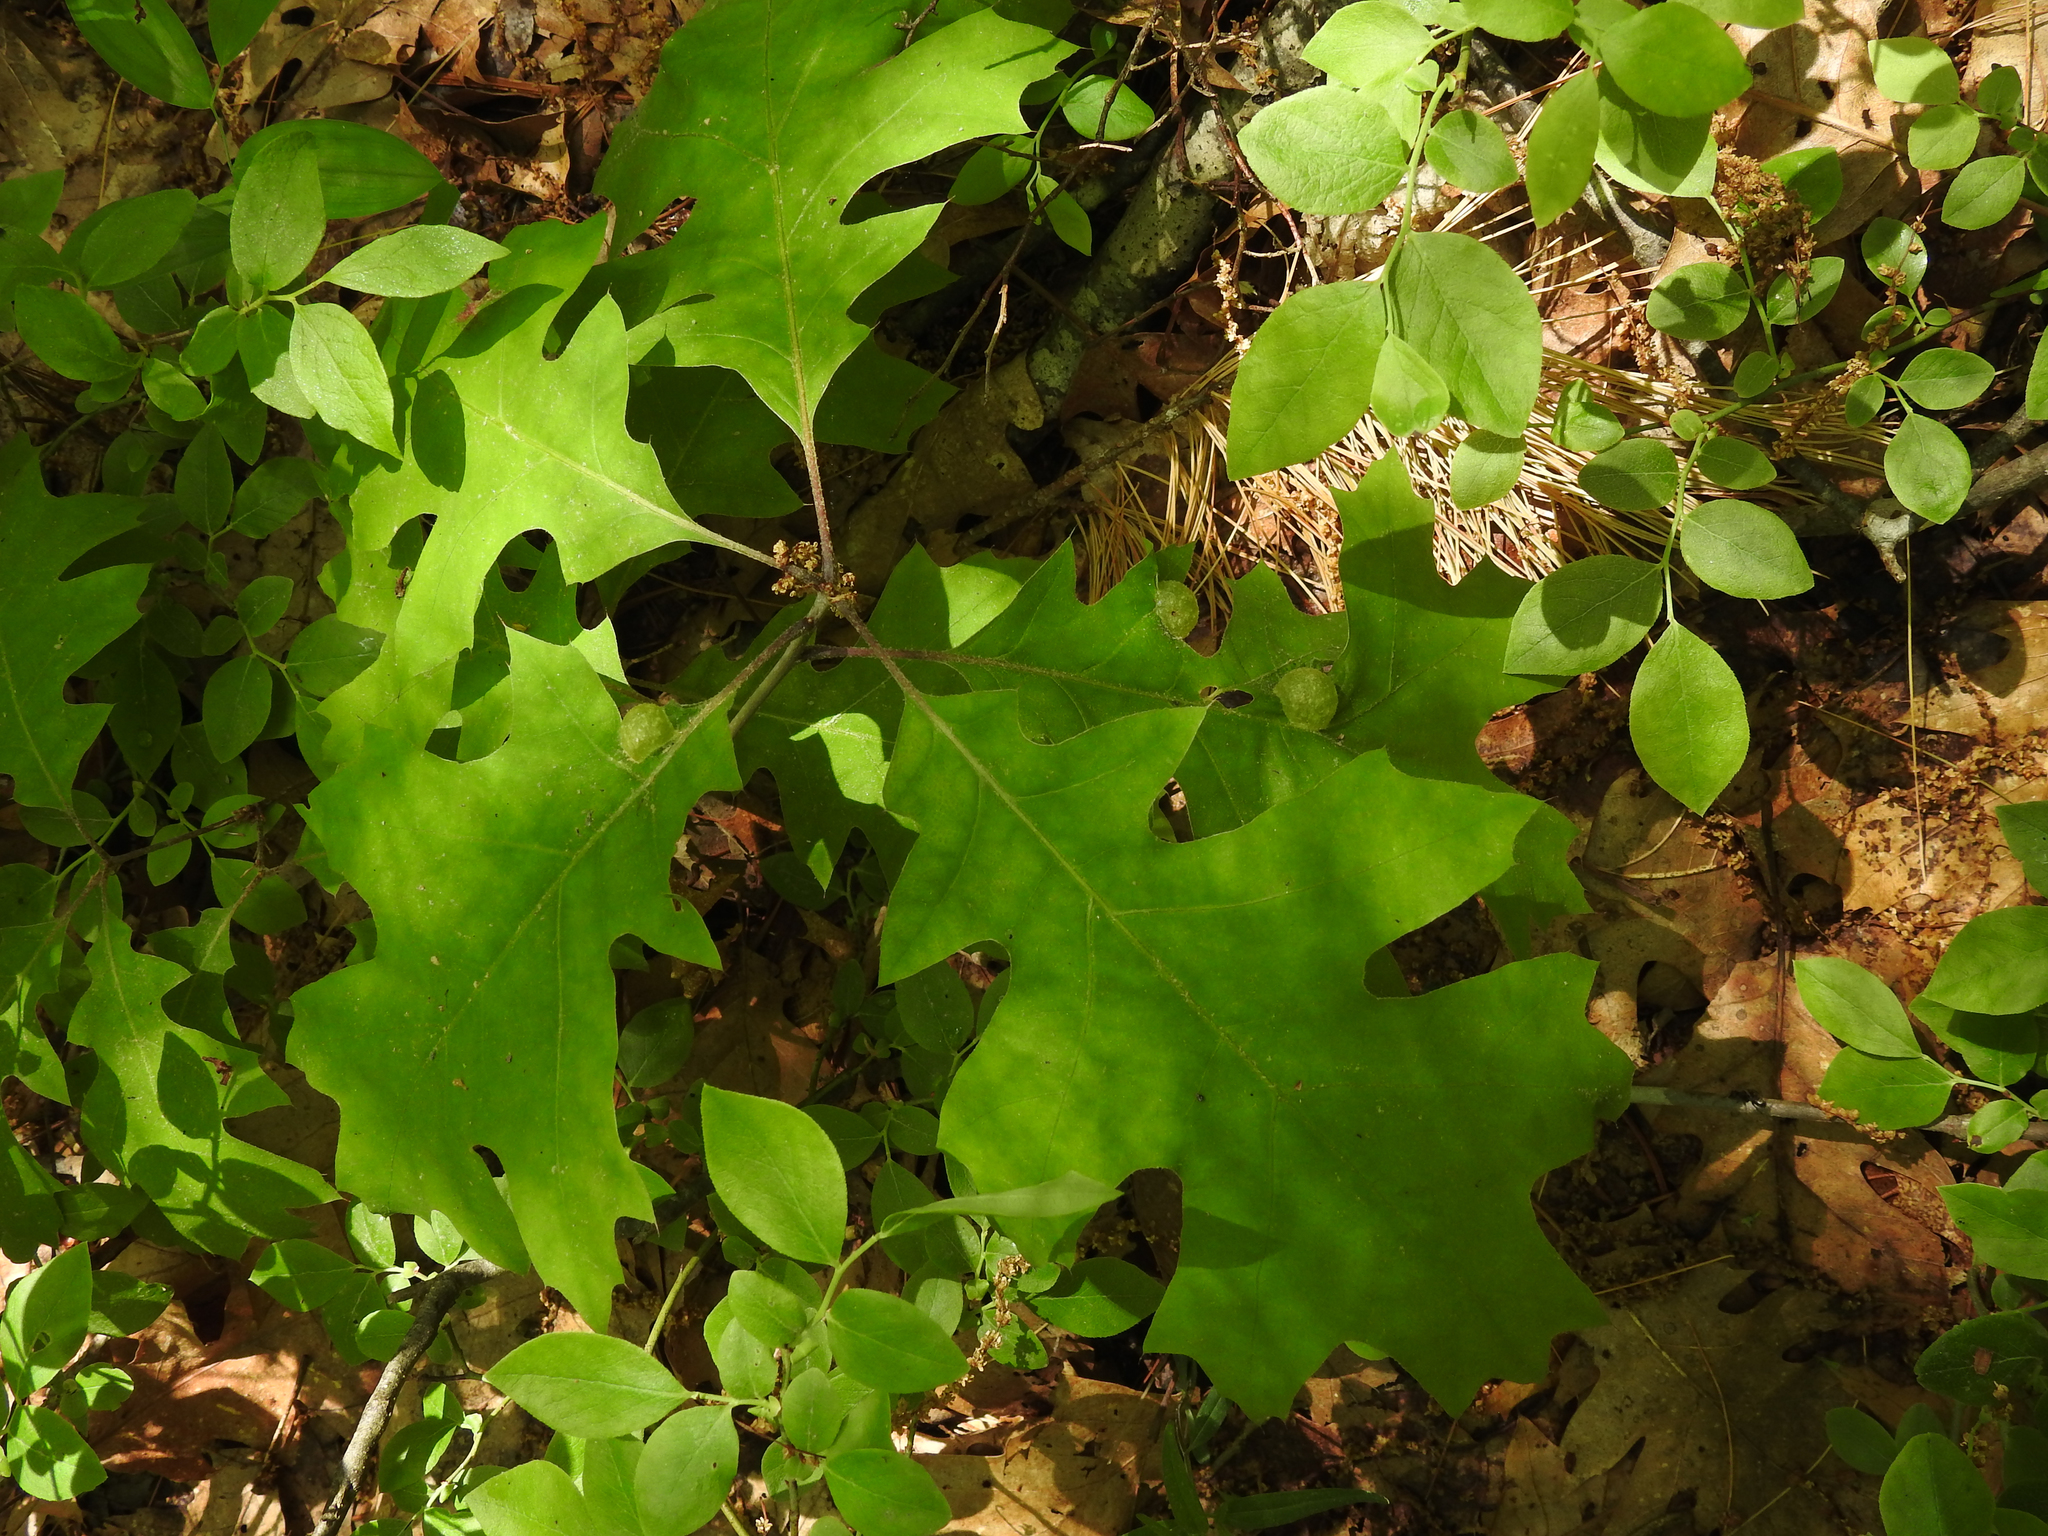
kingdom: Animalia
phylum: Arthropoda
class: Insecta
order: Hymenoptera
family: Cynipidae
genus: Dryocosmus
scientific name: Dryocosmus quercuspalustris
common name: Succulent oak gall wasp
